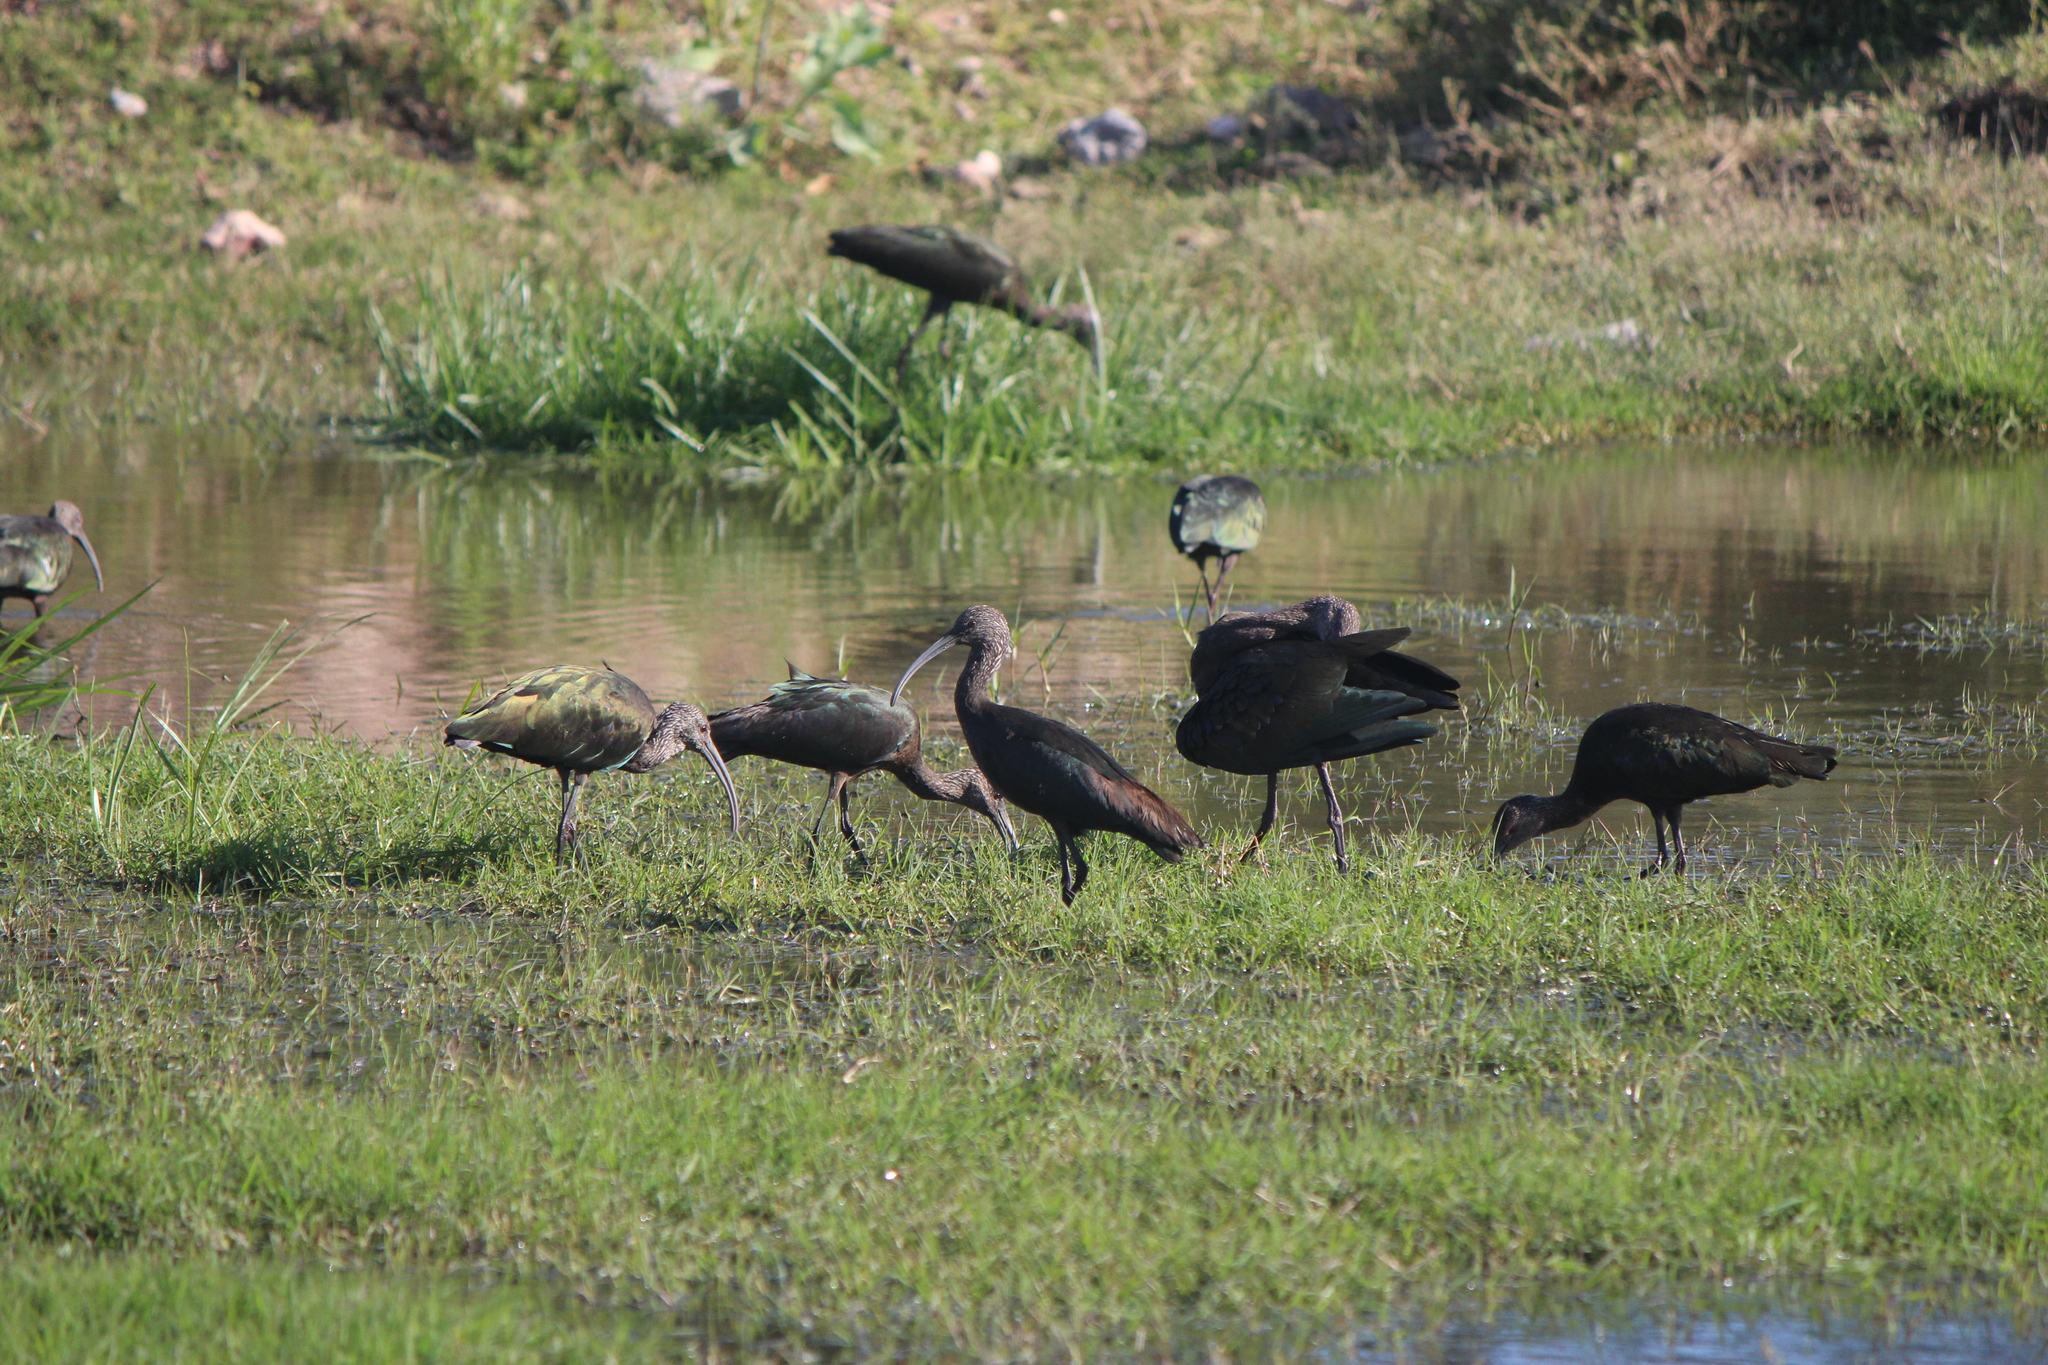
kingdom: Animalia
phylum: Chordata
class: Aves
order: Pelecaniformes
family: Threskiornithidae
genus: Plegadis
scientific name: Plegadis chihi
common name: White-faced ibis
